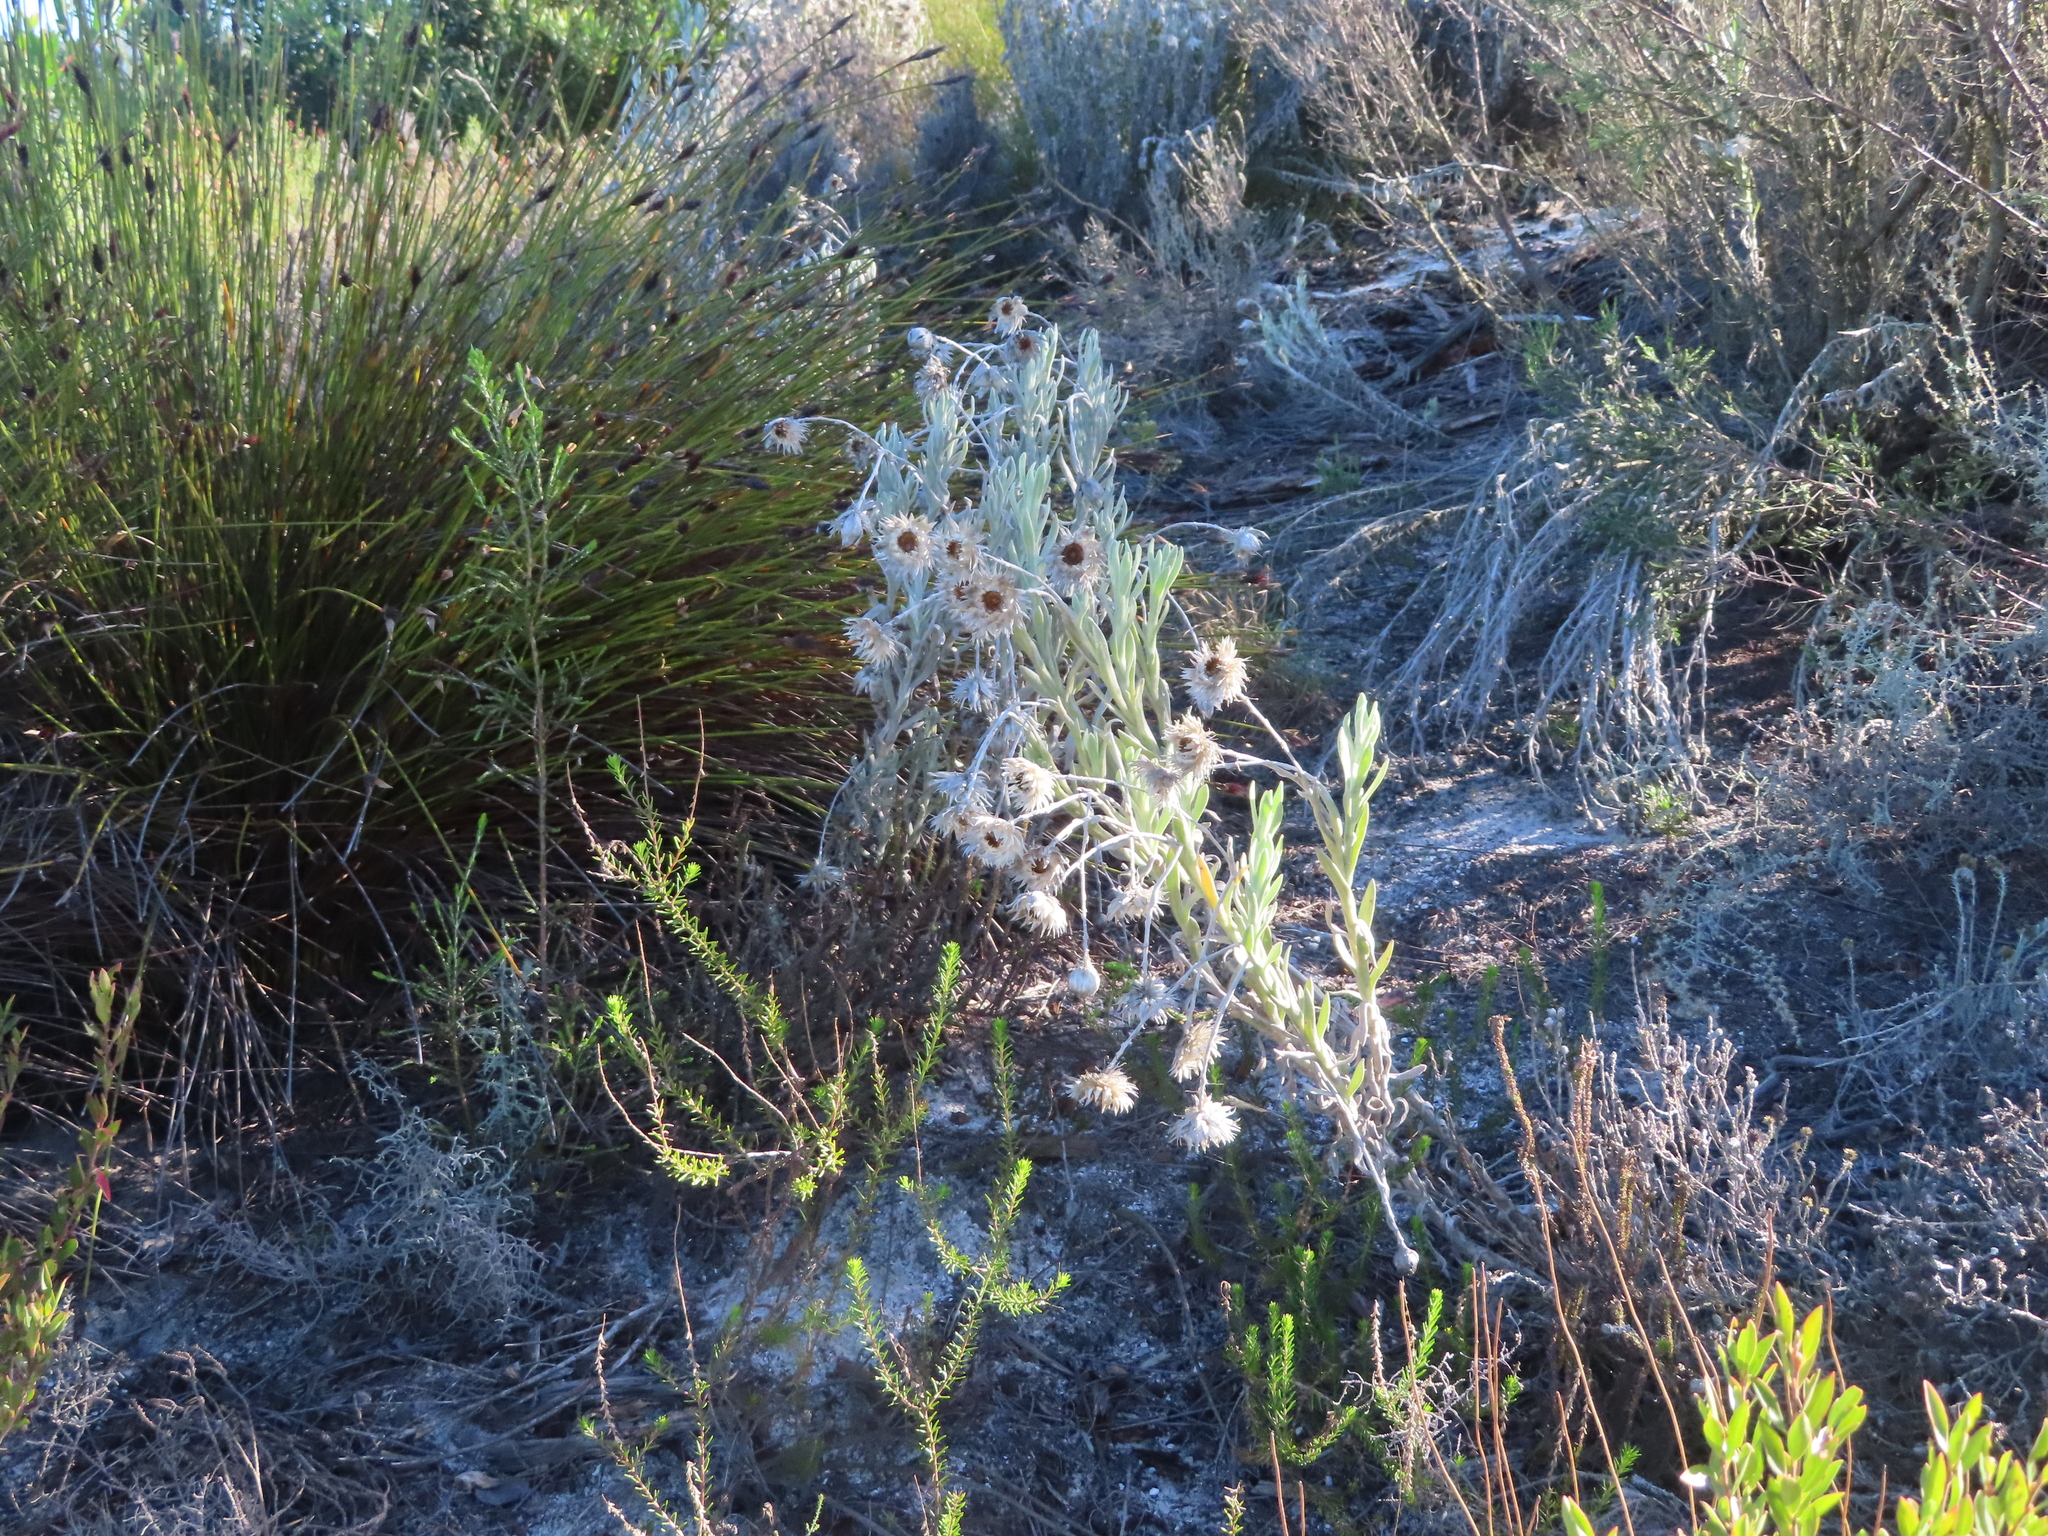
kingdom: Plantae
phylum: Tracheophyta
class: Magnoliopsida
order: Asterales
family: Asteraceae
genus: Syncarpha
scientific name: Syncarpha vestita
